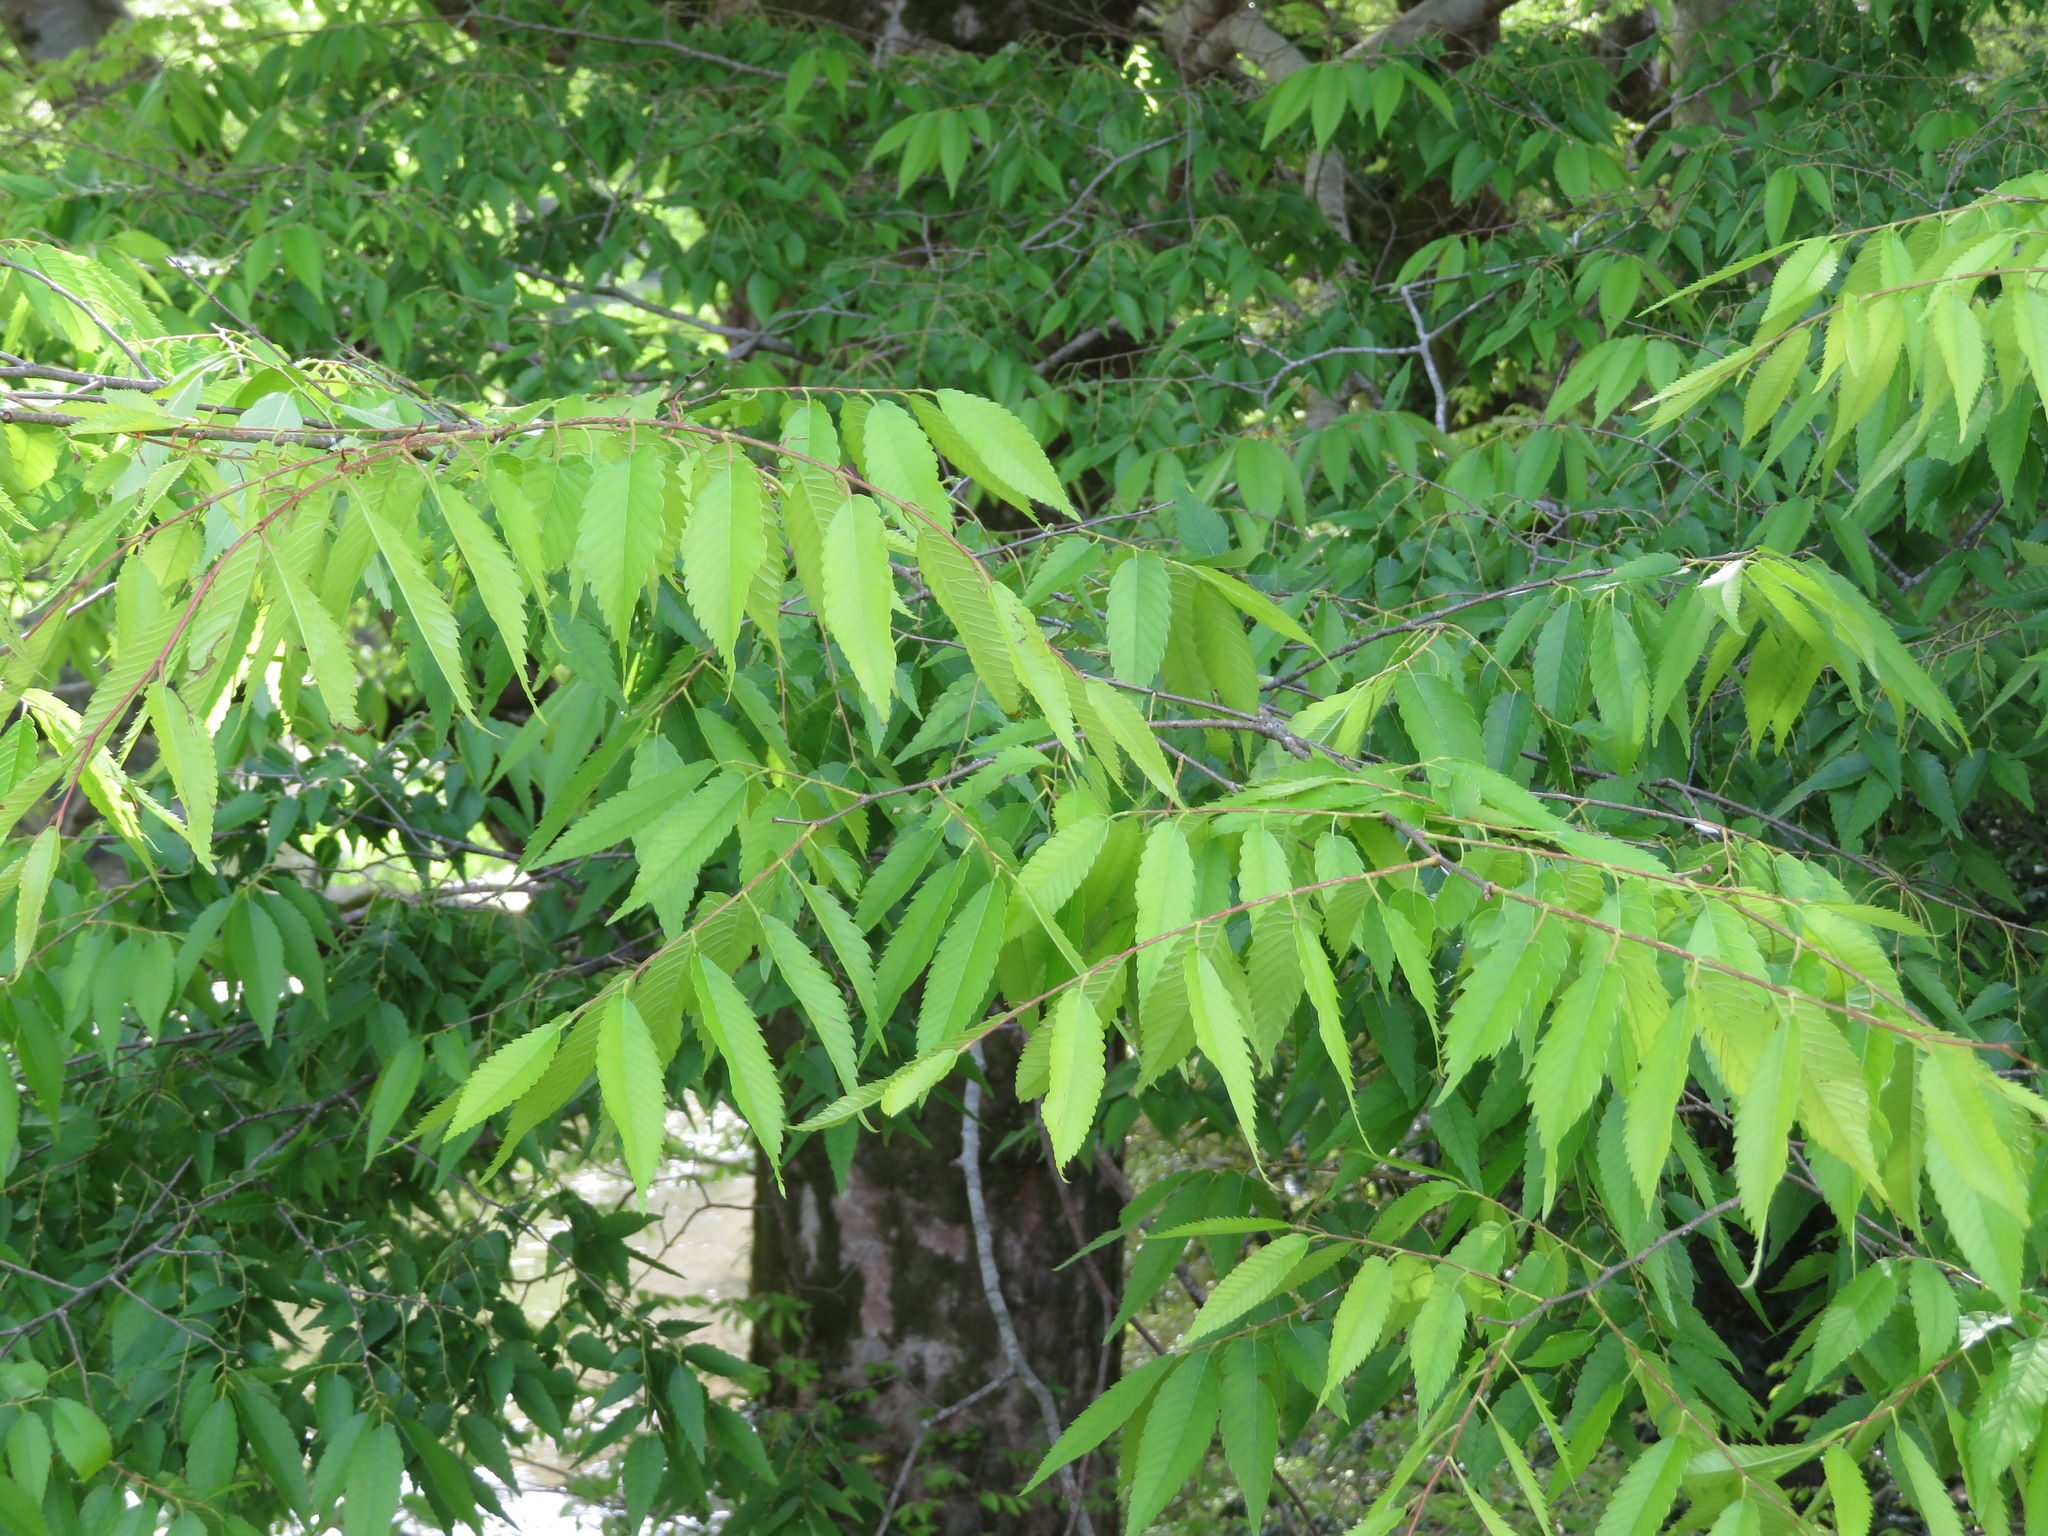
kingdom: Plantae
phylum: Tracheophyta
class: Magnoliopsida
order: Rosales
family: Ulmaceae
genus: Zelkova
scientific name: Zelkova serrata
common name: Japanese zelkova
